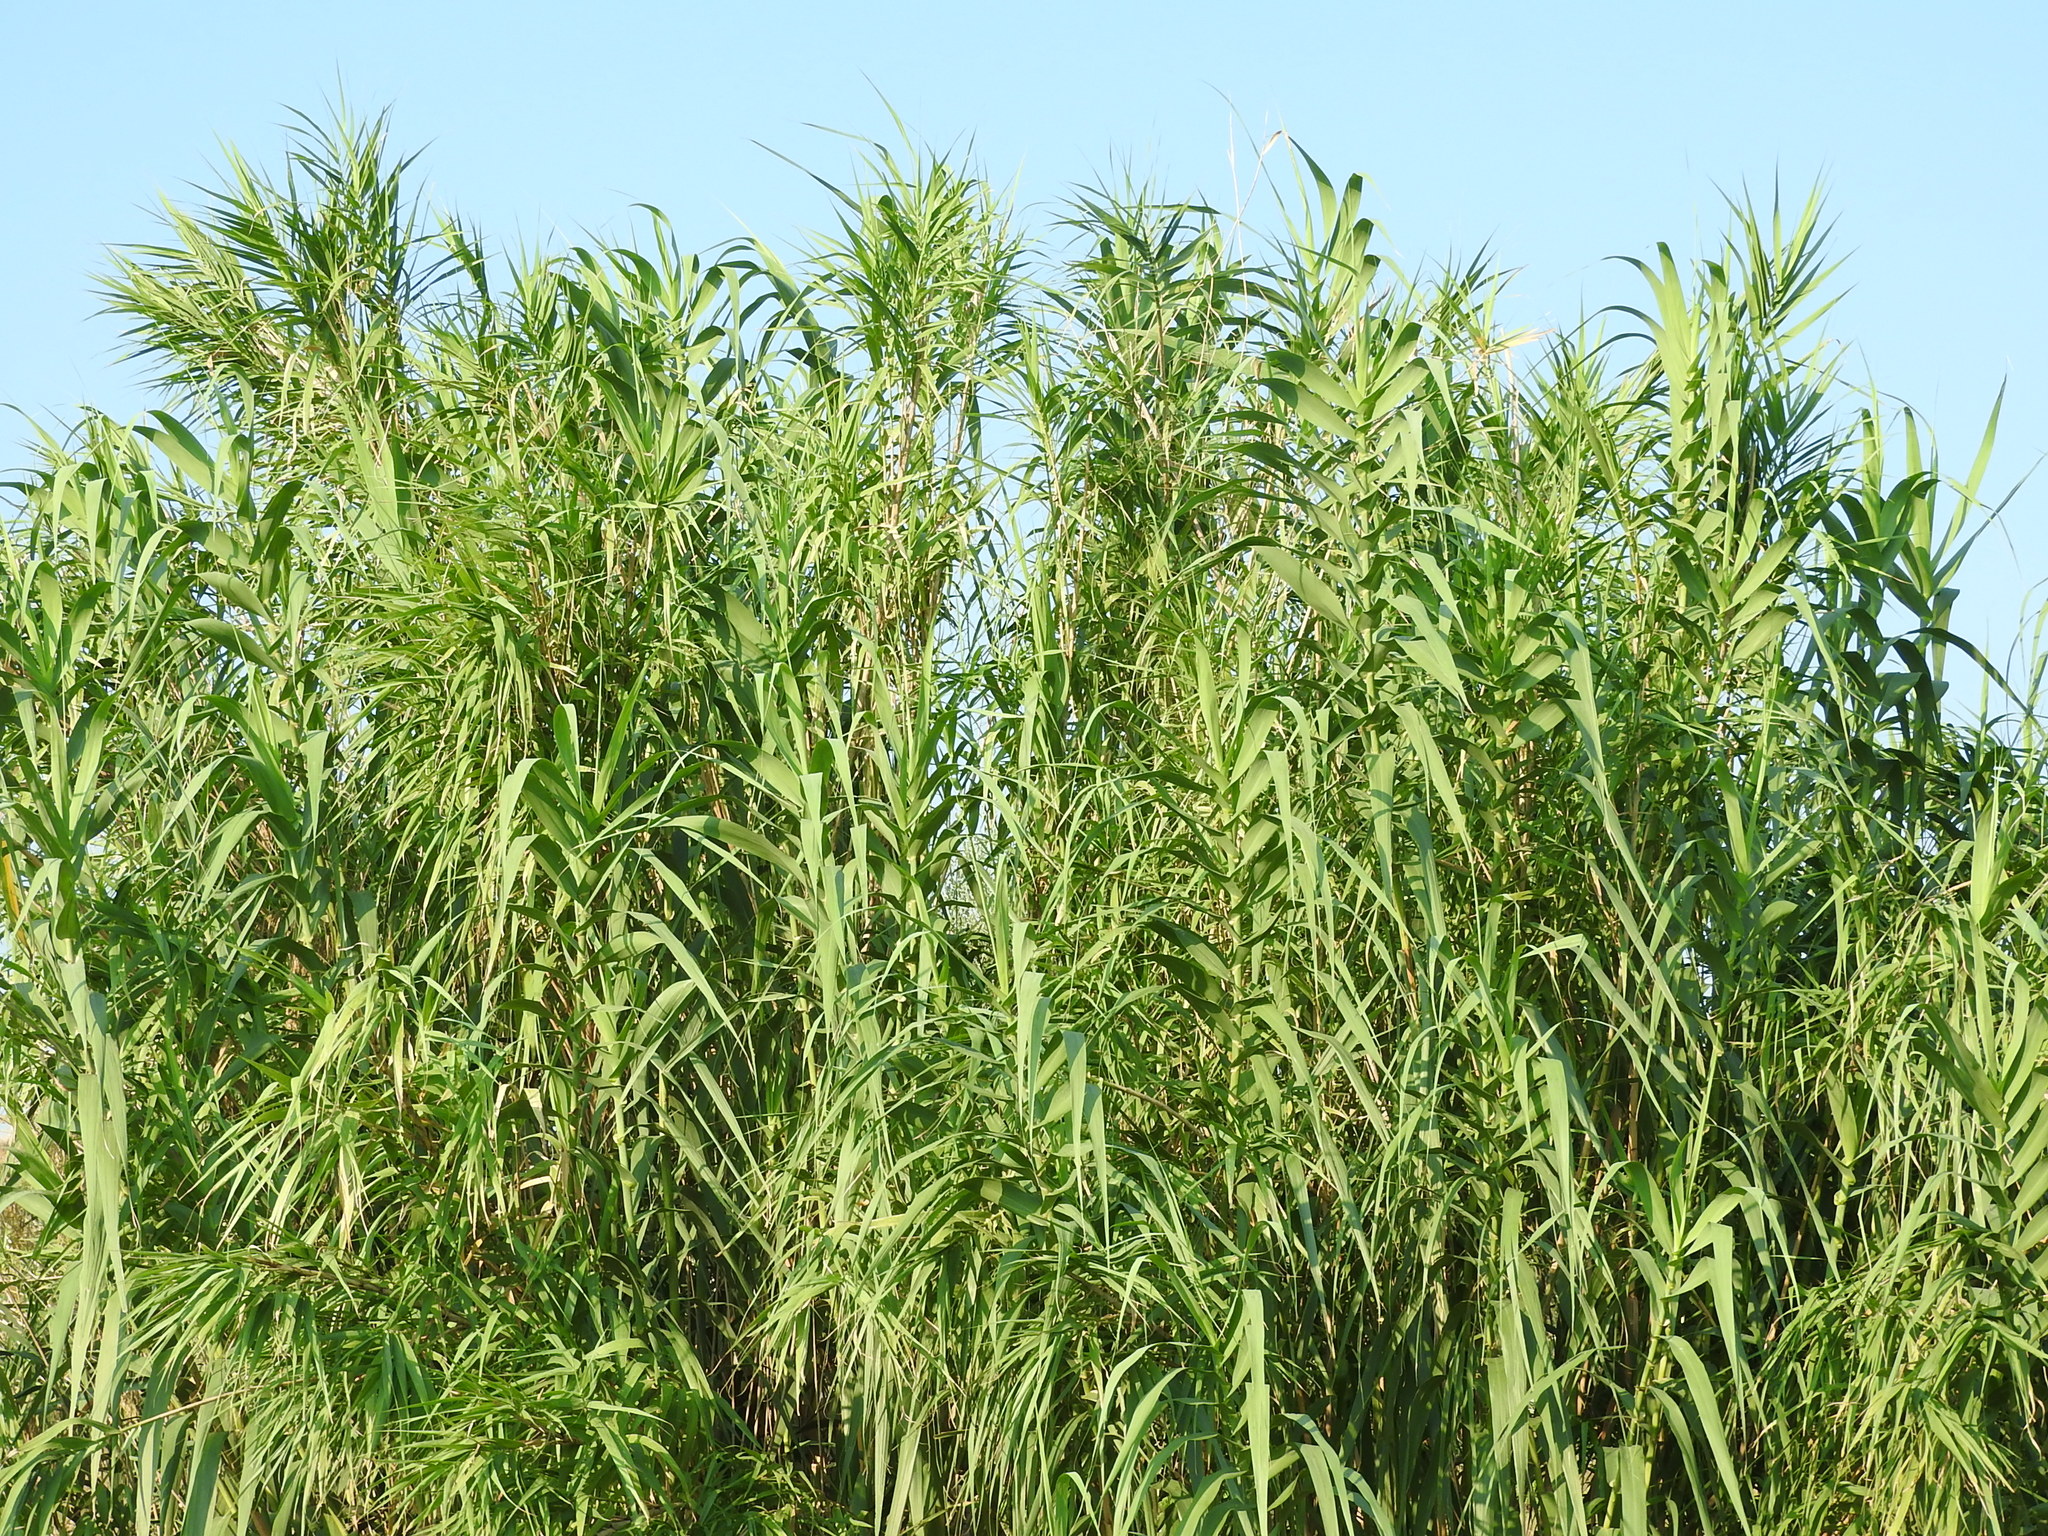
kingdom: Plantae
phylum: Tracheophyta
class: Liliopsida
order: Poales
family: Poaceae
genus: Arundo
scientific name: Arundo donax
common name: Giant reed
